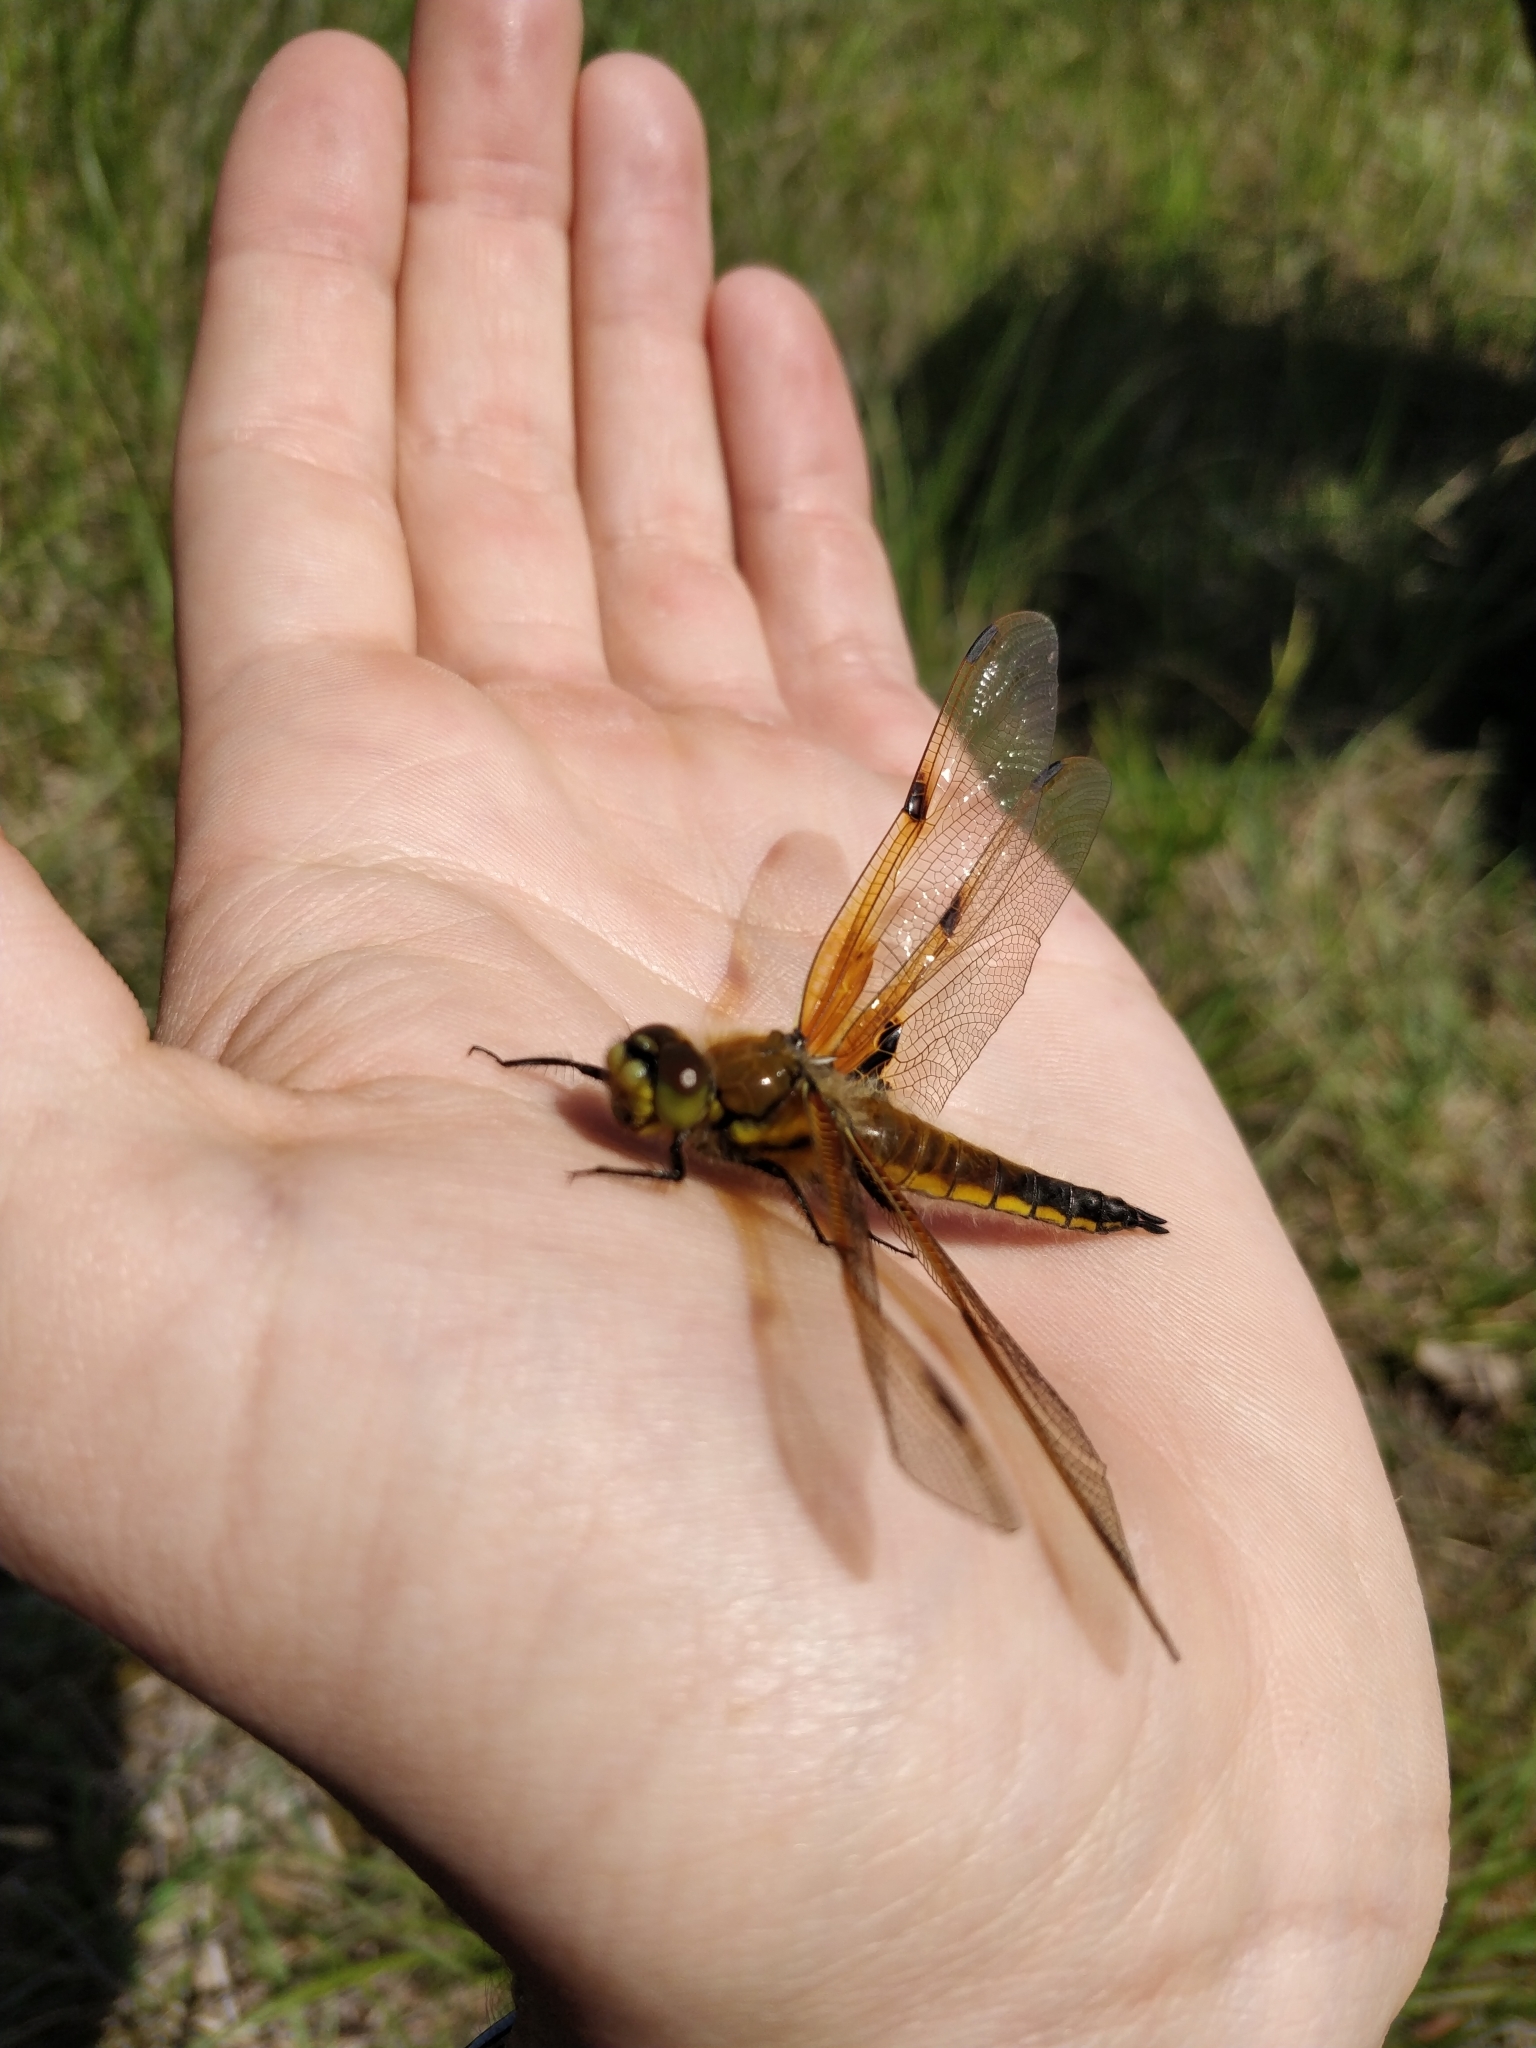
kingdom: Animalia
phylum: Arthropoda
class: Insecta
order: Odonata
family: Libellulidae
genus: Libellula
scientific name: Libellula quadrimaculata
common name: Four-spotted chaser
